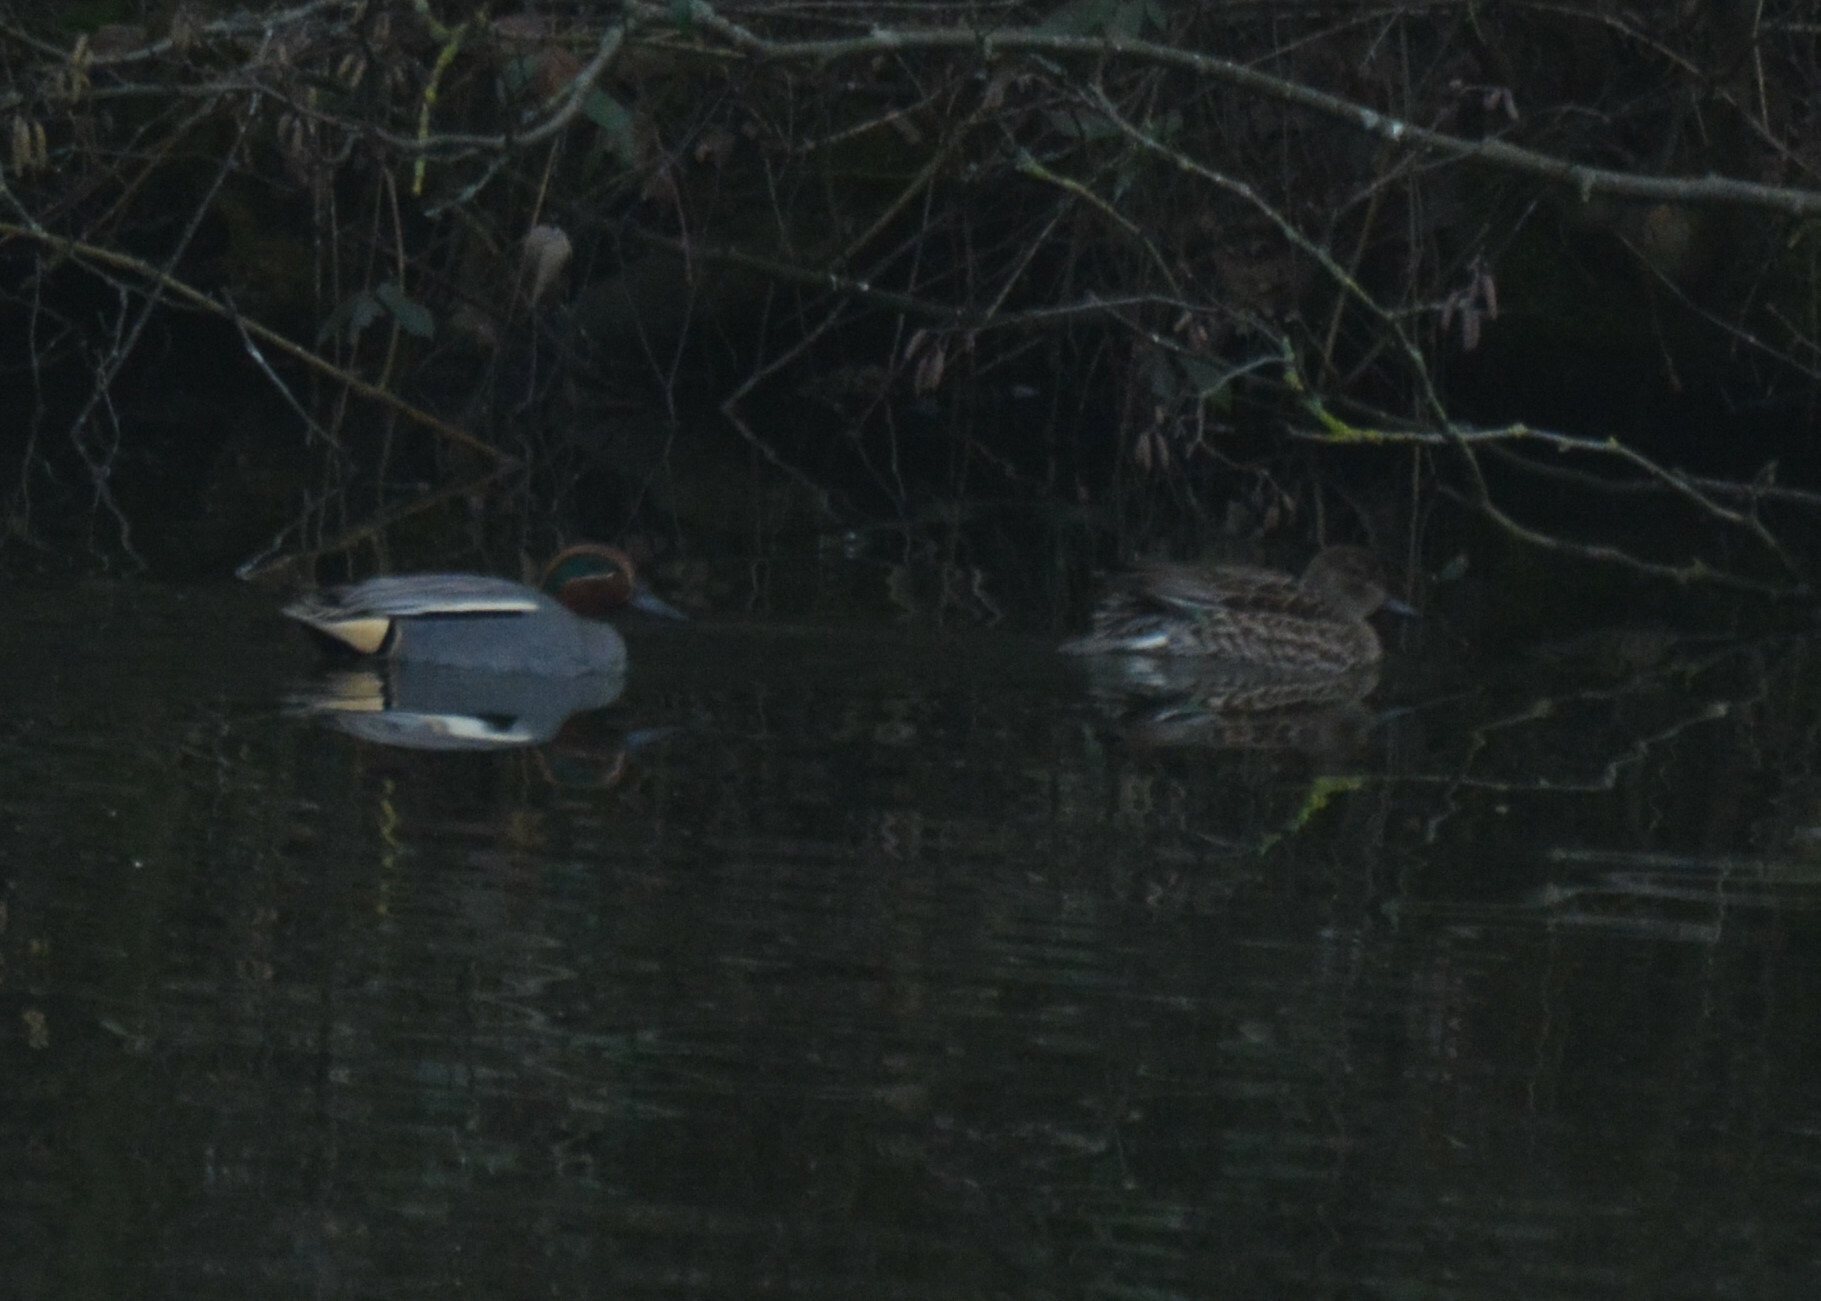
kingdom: Animalia
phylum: Chordata
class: Aves
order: Anseriformes
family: Anatidae
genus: Anas
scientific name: Anas crecca
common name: Eurasian teal
